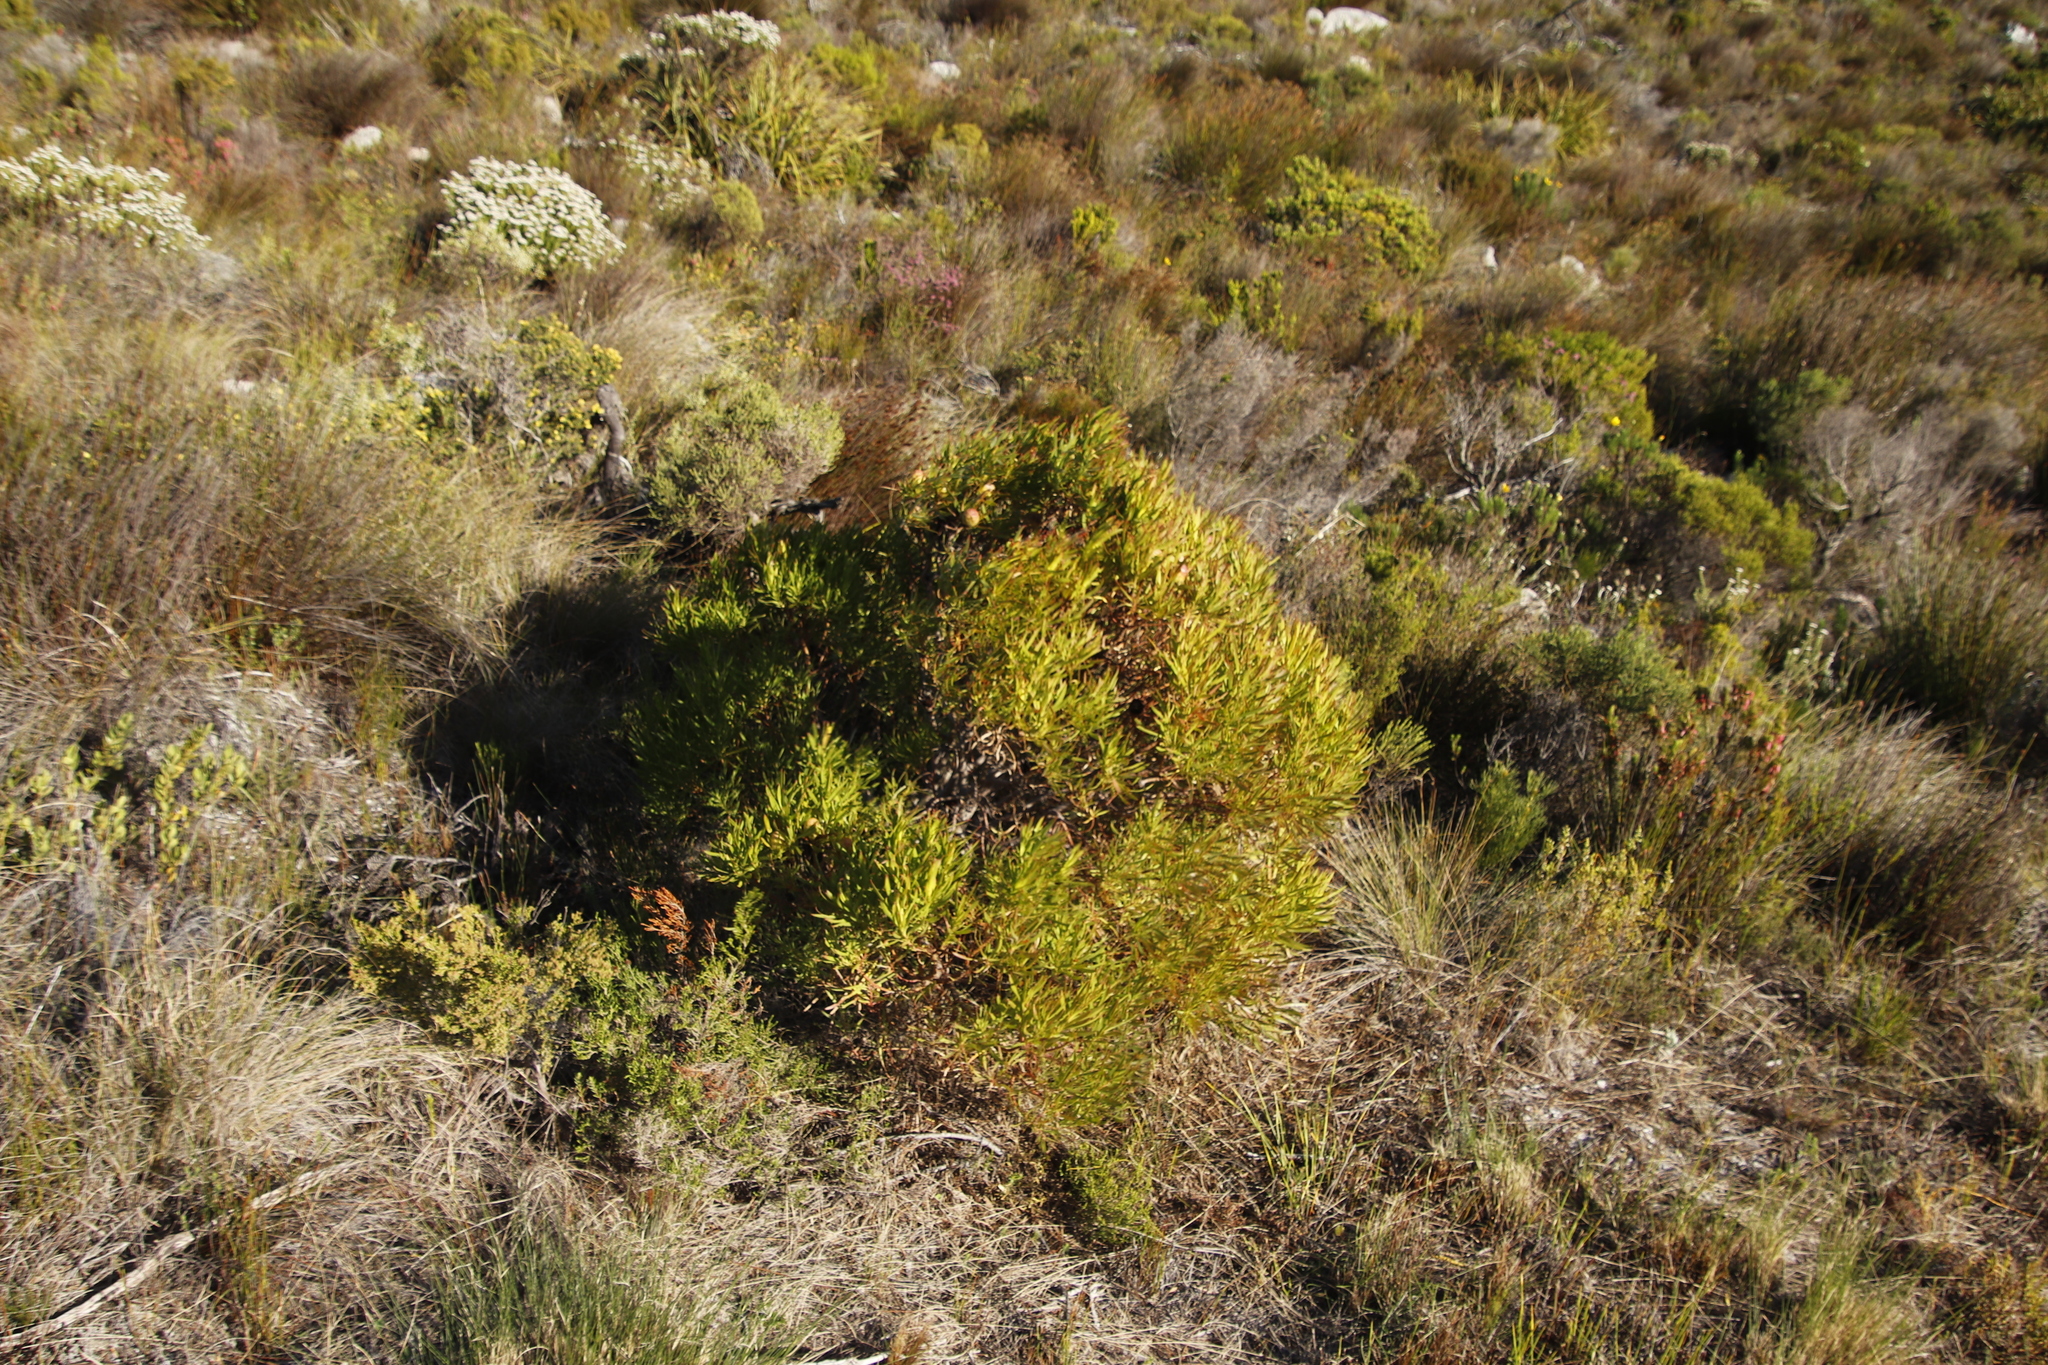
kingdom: Plantae
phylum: Tracheophyta
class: Magnoliopsida
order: Proteales
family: Proteaceae
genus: Leucadendron
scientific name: Leucadendron xanthoconus
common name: Sickle-leaf conebush
